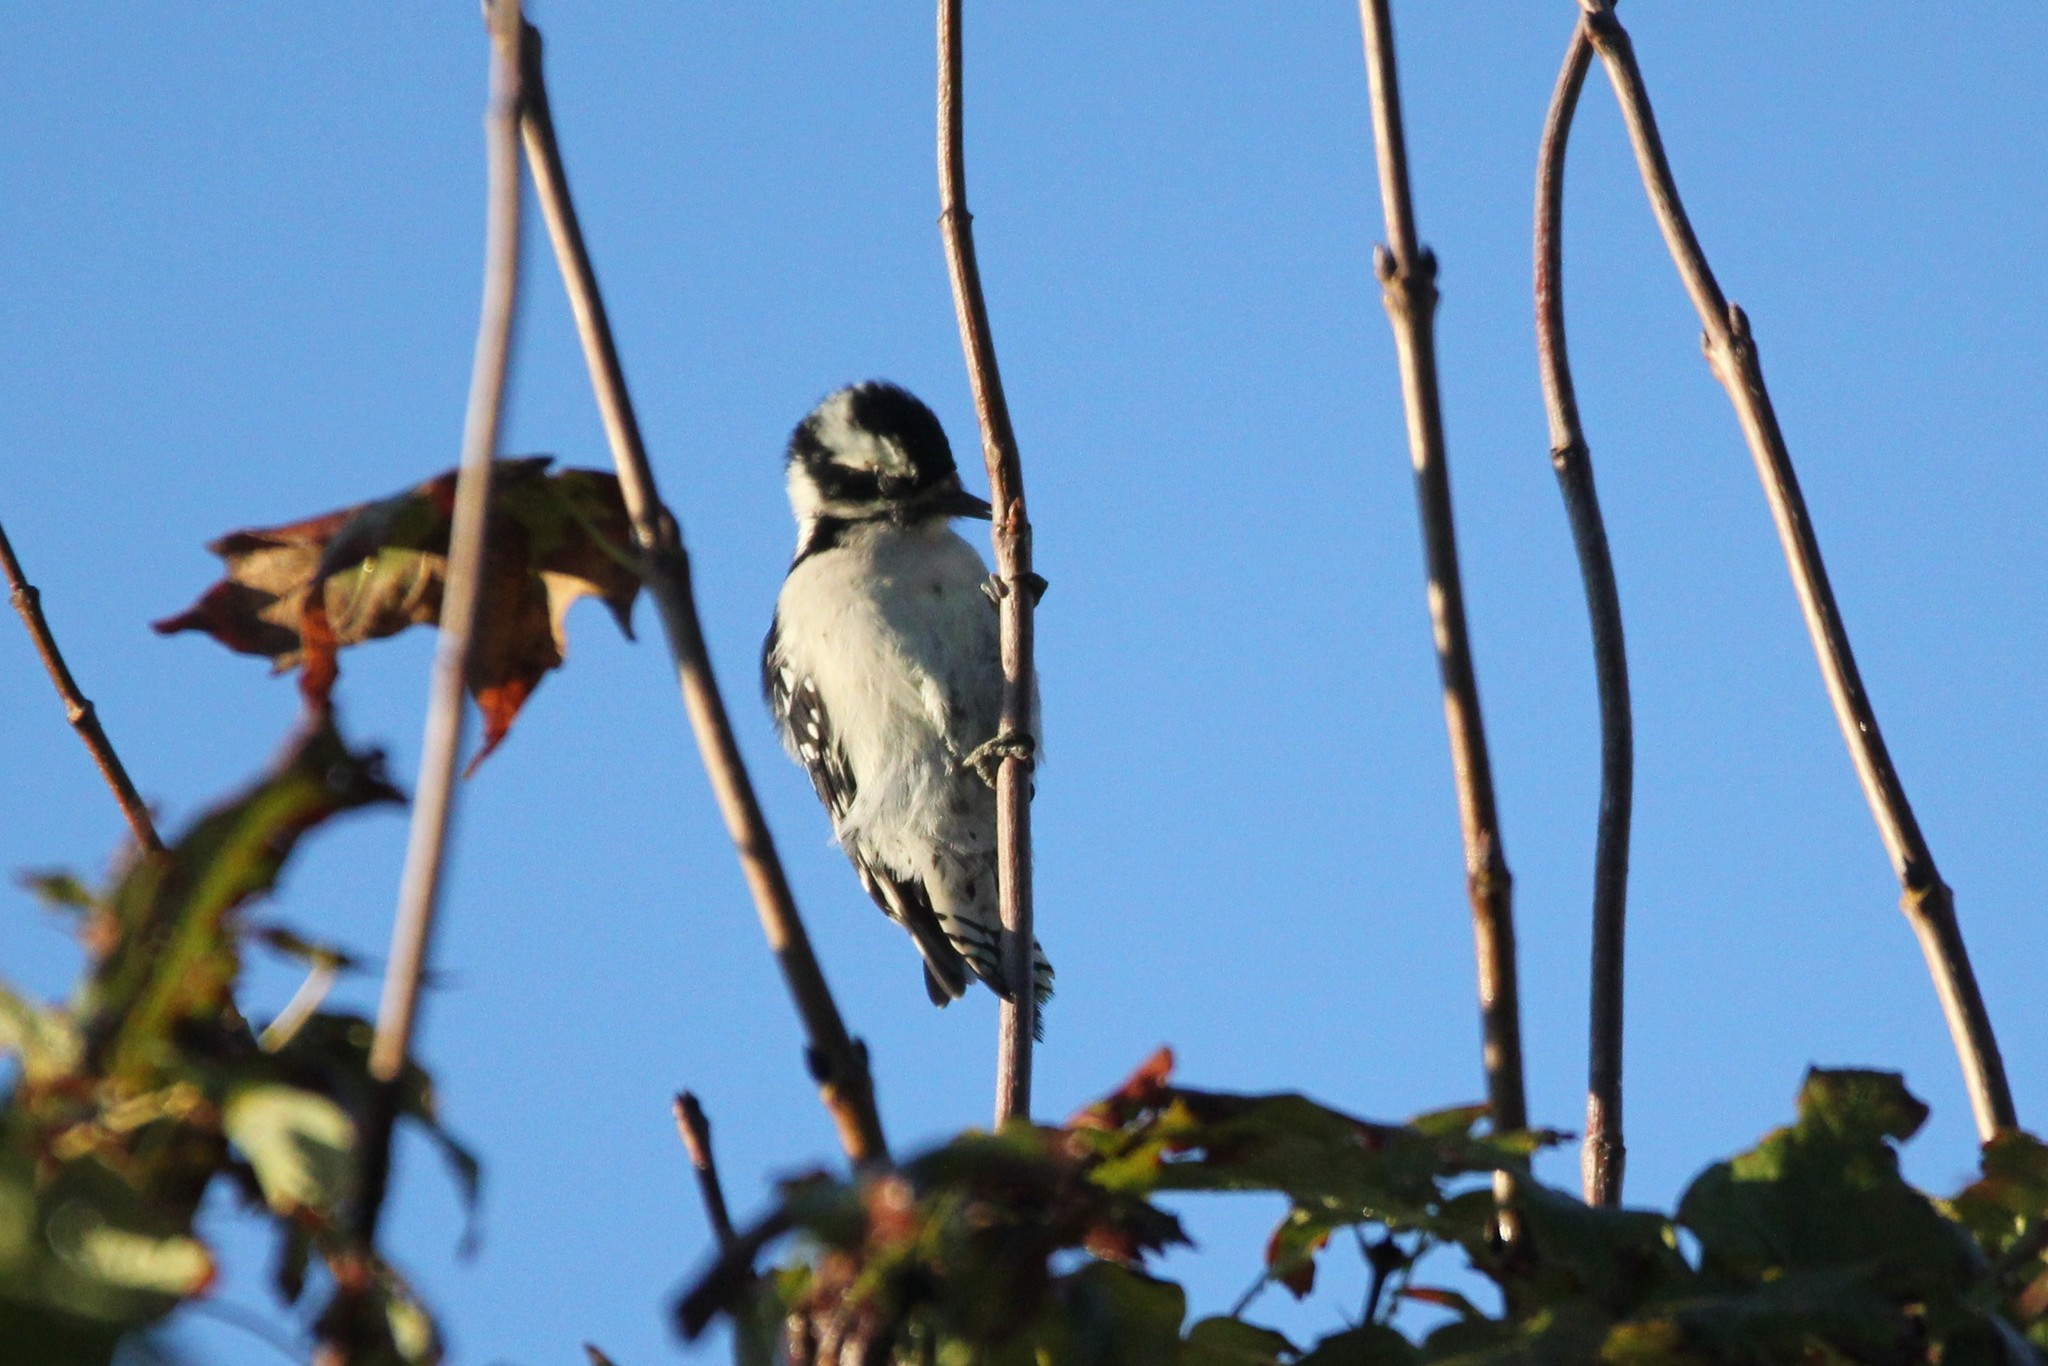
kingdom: Animalia
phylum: Chordata
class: Aves
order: Piciformes
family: Picidae
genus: Dryobates
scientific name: Dryobates pubescens
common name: Downy woodpecker
